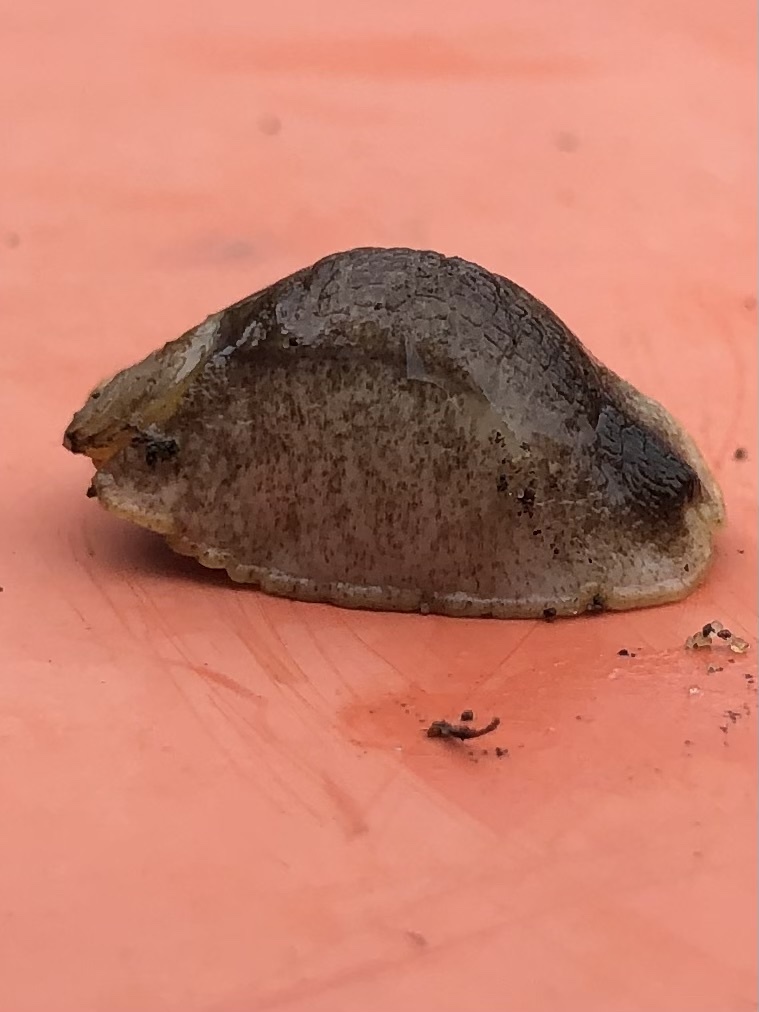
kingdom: Animalia
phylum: Mollusca
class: Gastropoda
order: Stylommatophora
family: Testacellidae
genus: Testacella
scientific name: Testacella haliotidea
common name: Shelled slug
